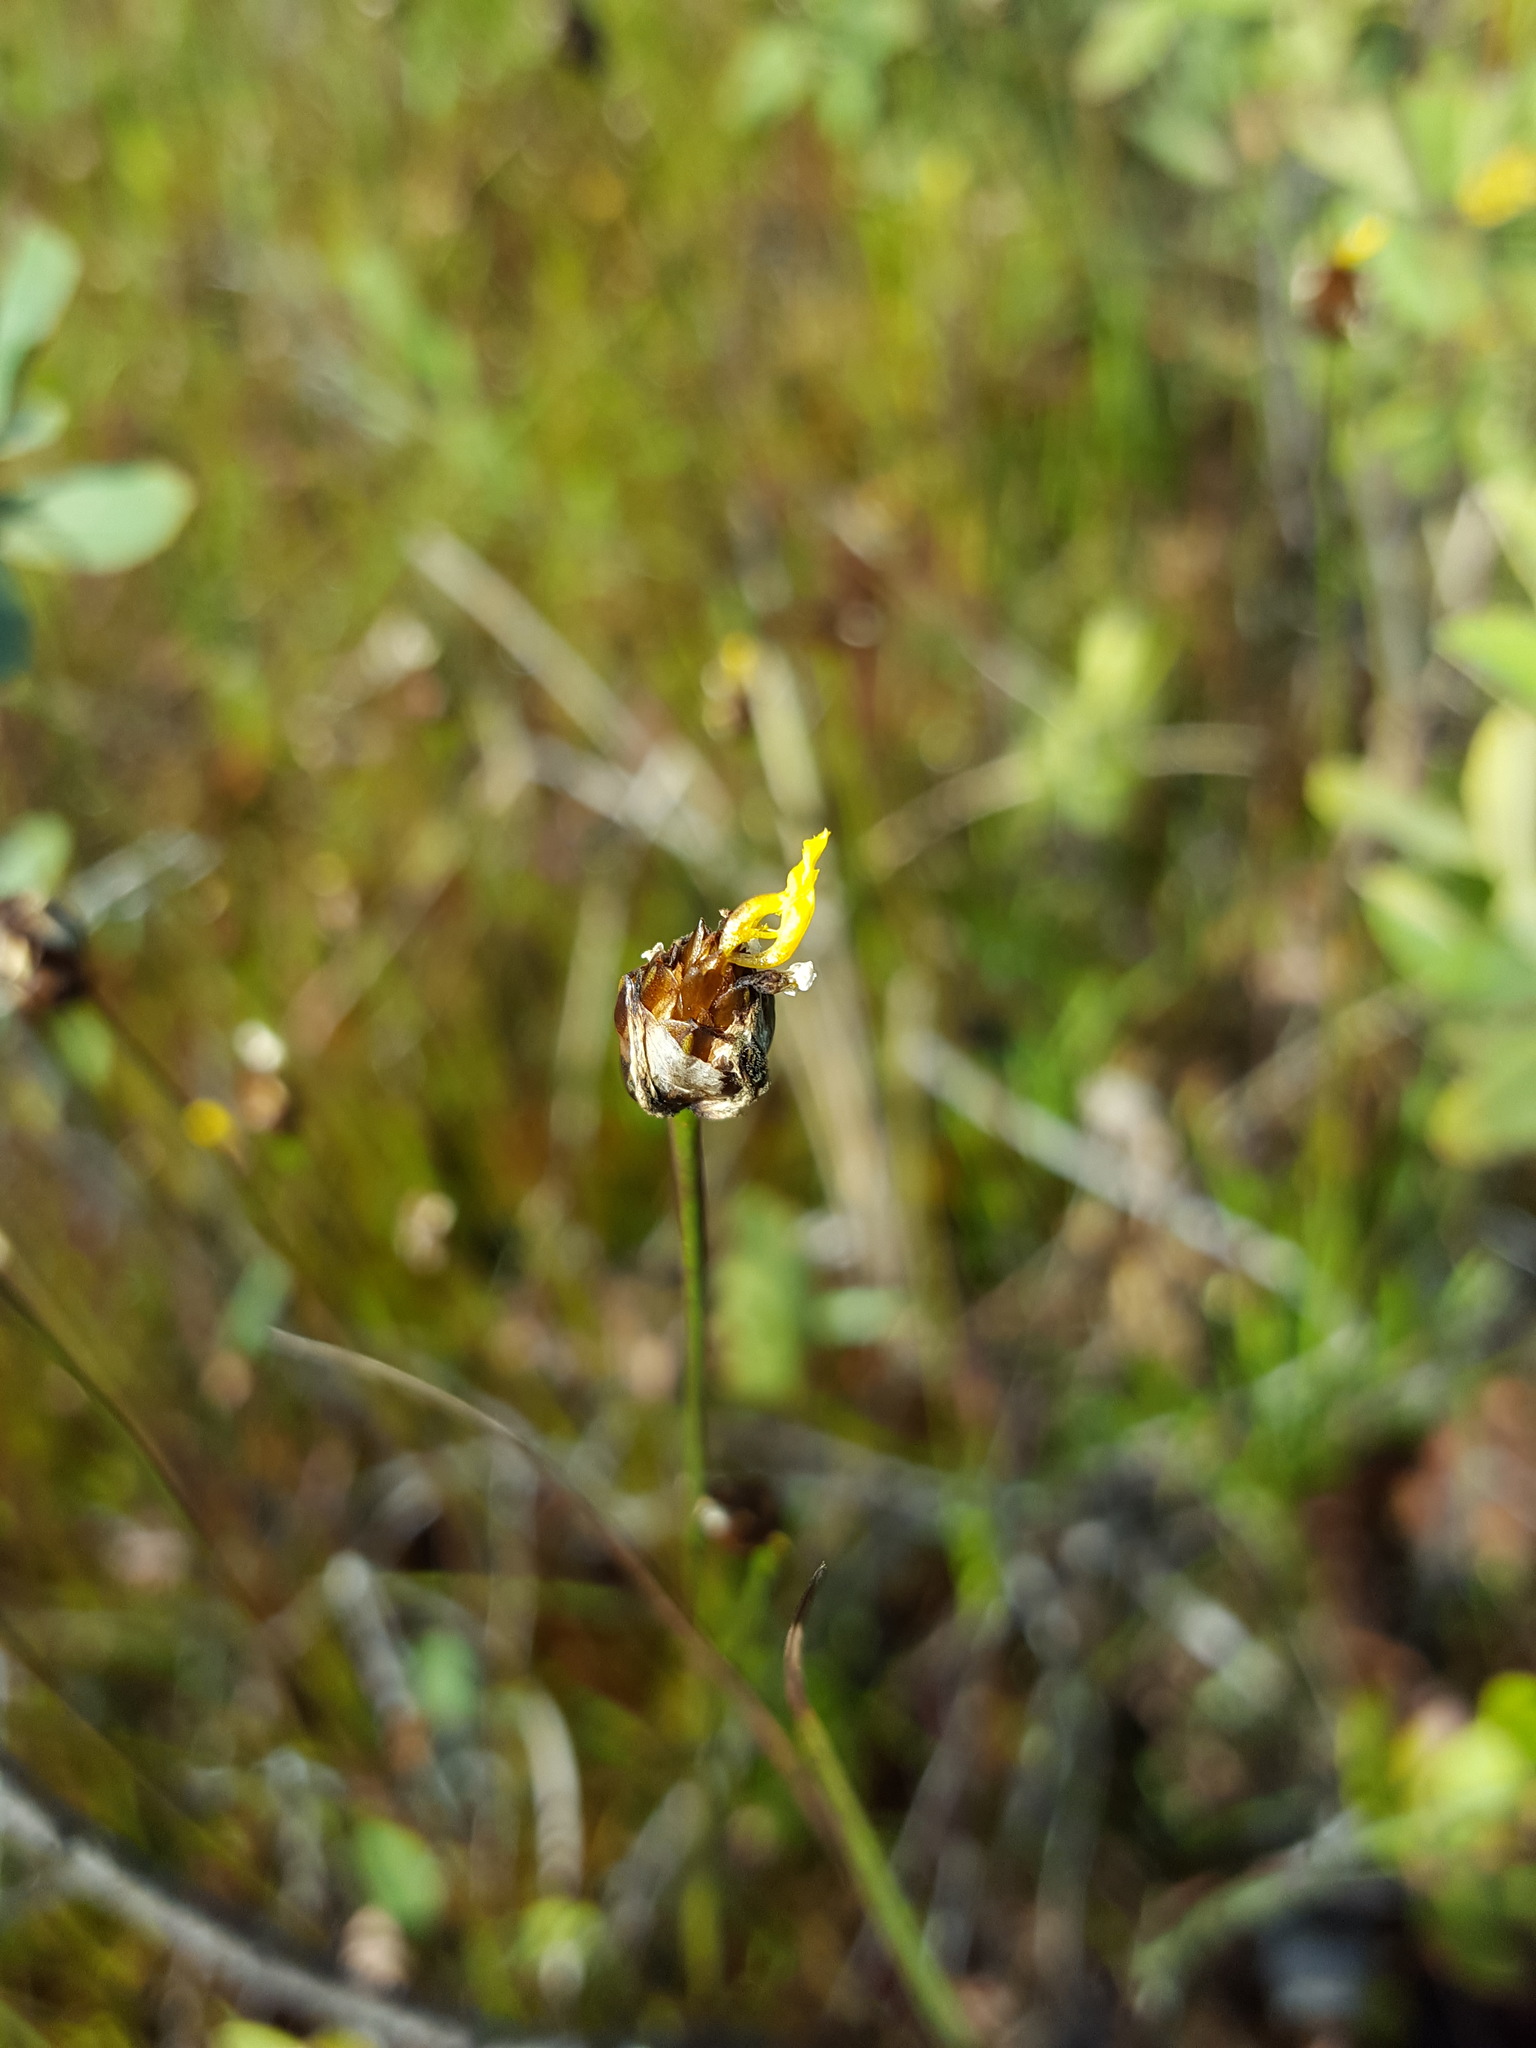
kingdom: Plantae
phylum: Tracheophyta
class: Liliopsida
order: Poales
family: Xyridaceae
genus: Xyris
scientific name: Xyris montana
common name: Northern yellow-eyed-grass
